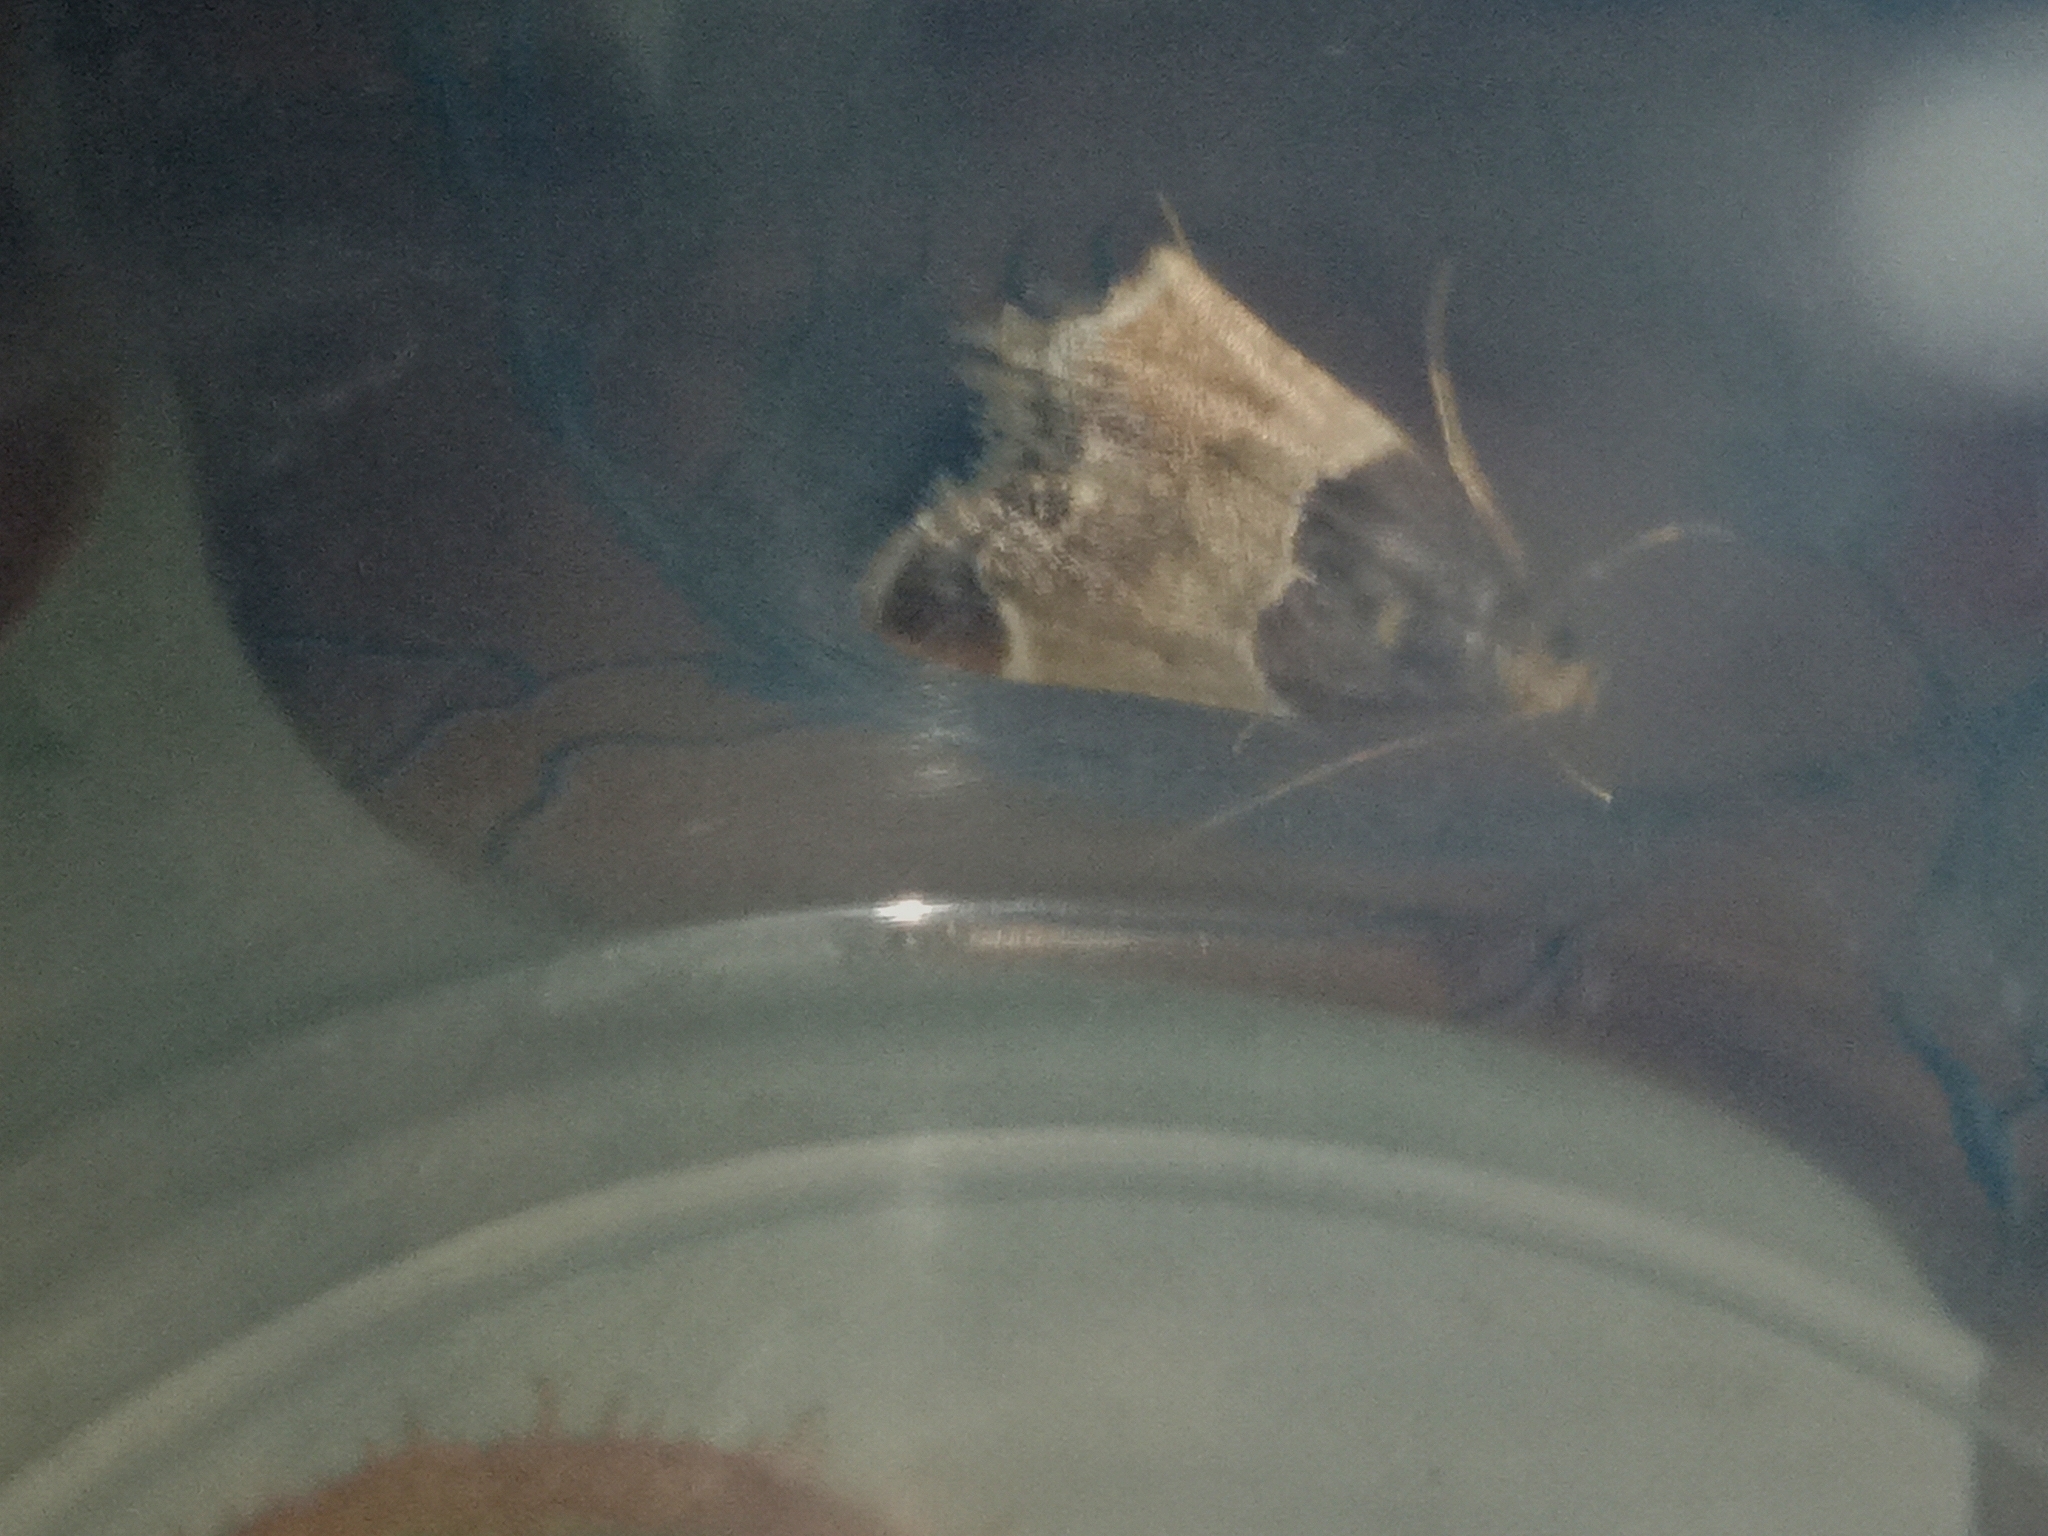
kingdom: Animalia
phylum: Arthropoda
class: Insecta
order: Lepidoptera
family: Pyralidae
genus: Pyralis
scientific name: Pyralis farinalis
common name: Meal moth
